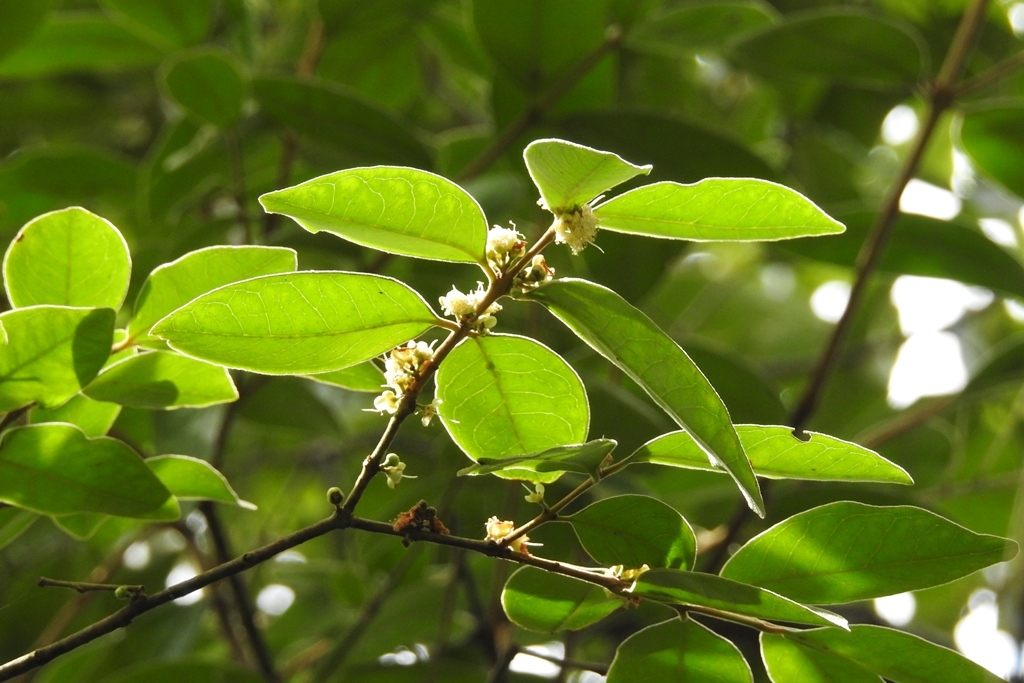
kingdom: Plantae
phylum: Tracheophyta
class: Magnoliopsida
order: Myrtales
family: Myrtaceae
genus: Eugenia
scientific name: Eugenia capuli
